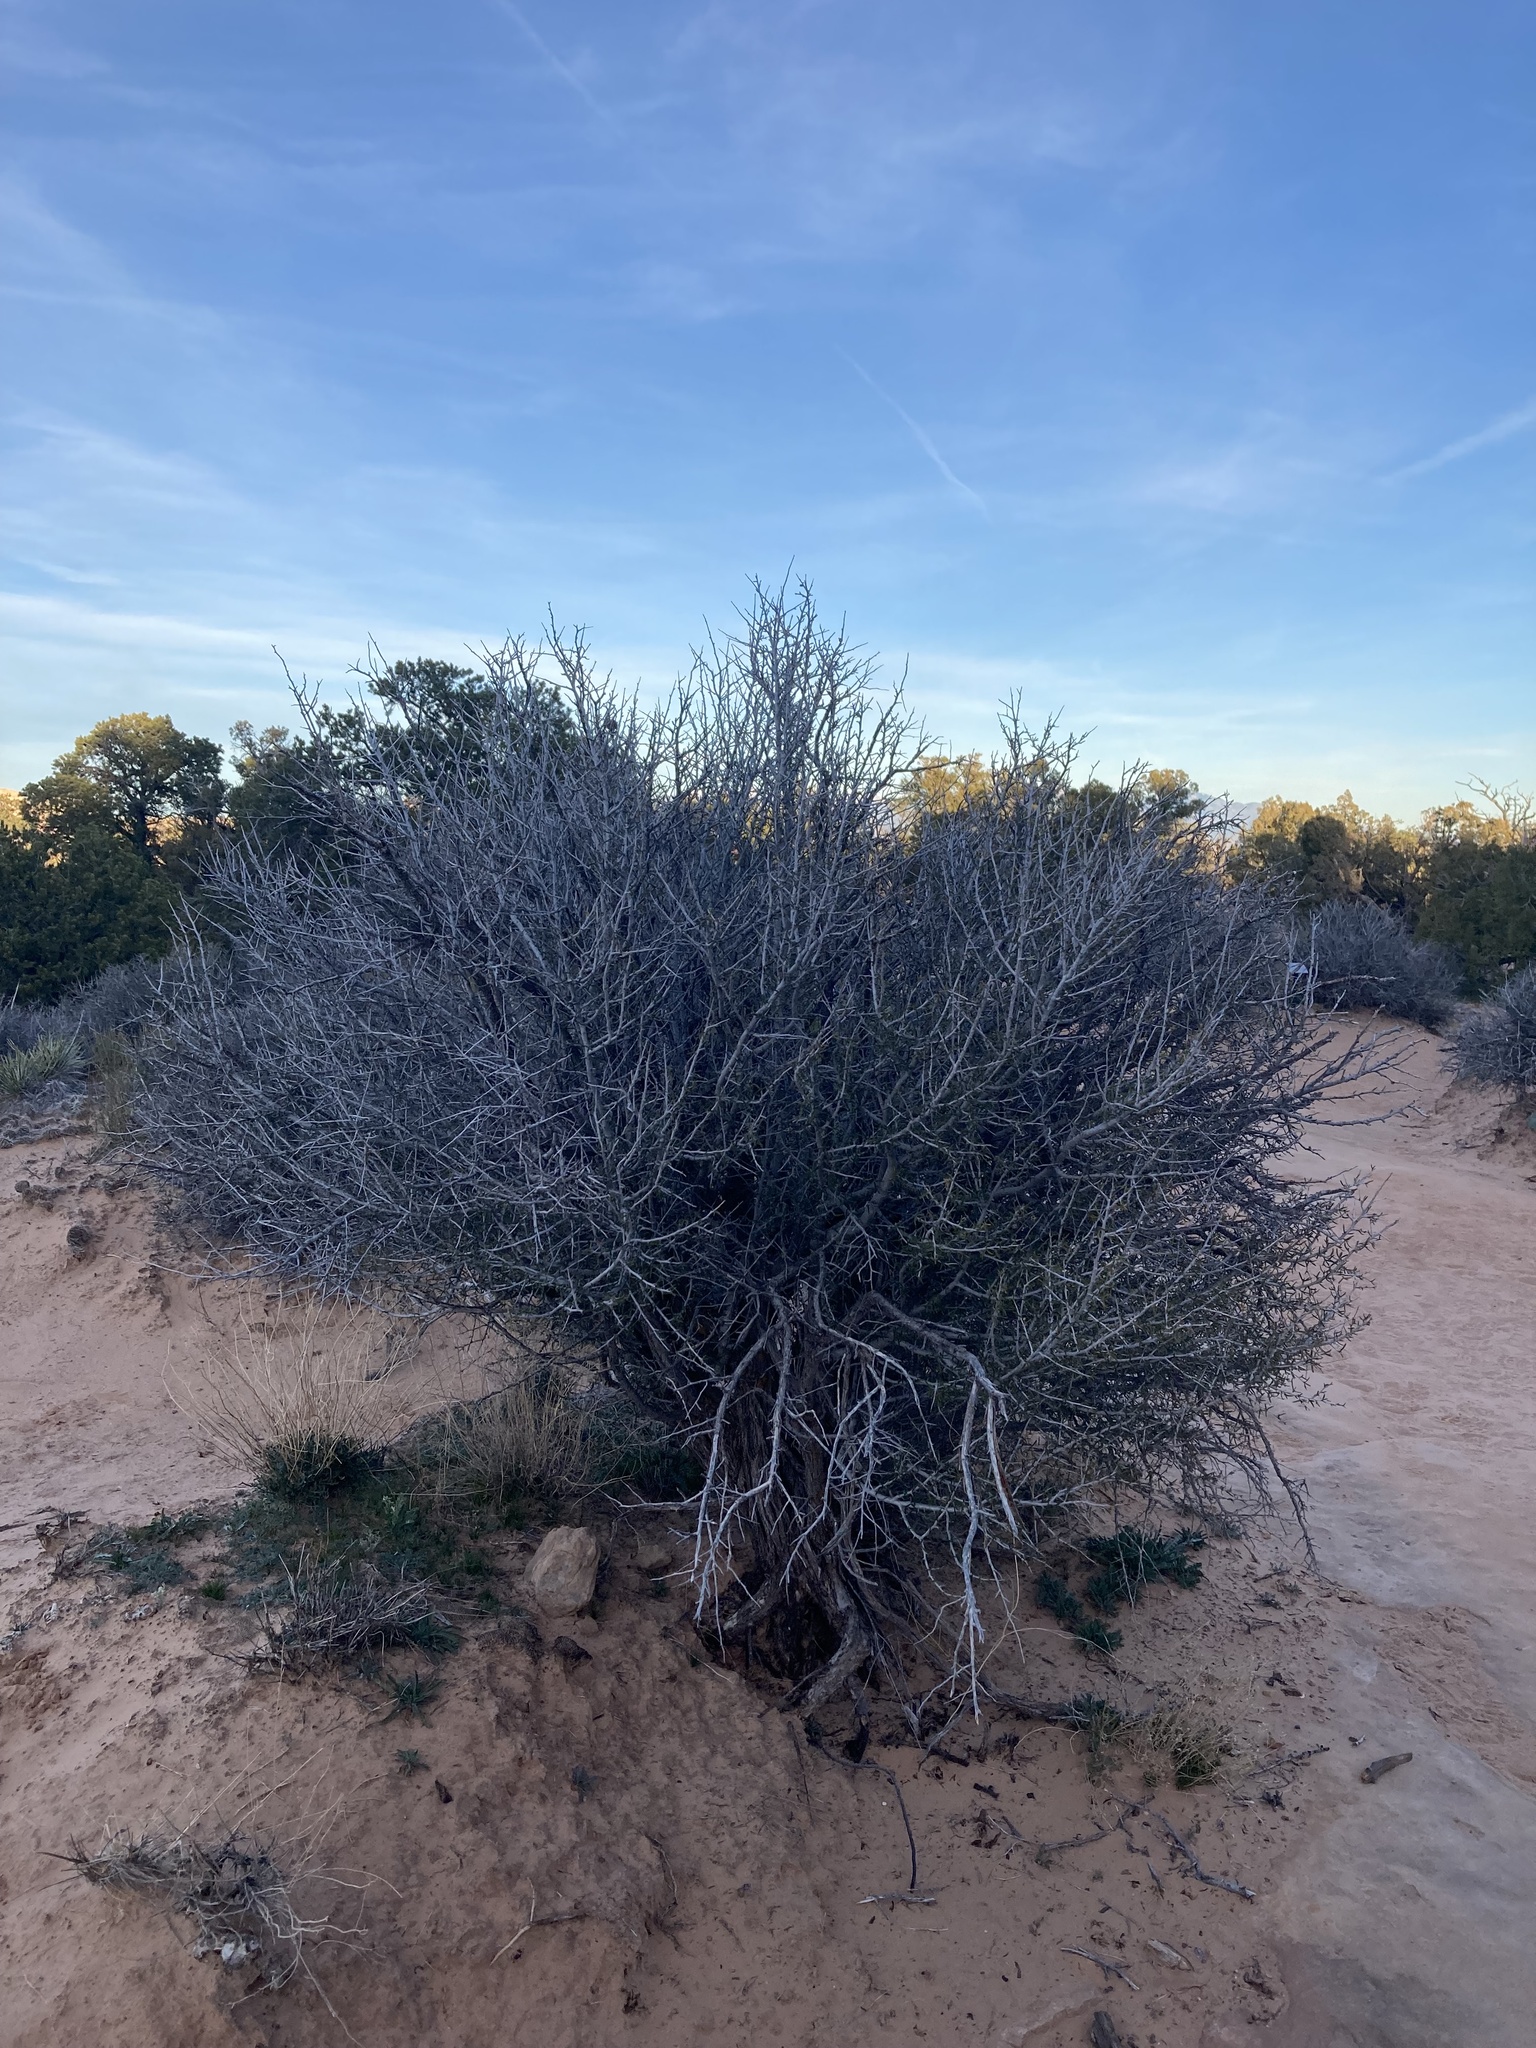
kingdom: Plantae
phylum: Tracheophyta
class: Magnoliopsida
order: Rosales
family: Rosaceae
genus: Cercocarpus
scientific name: Cercocarpus intricatus
